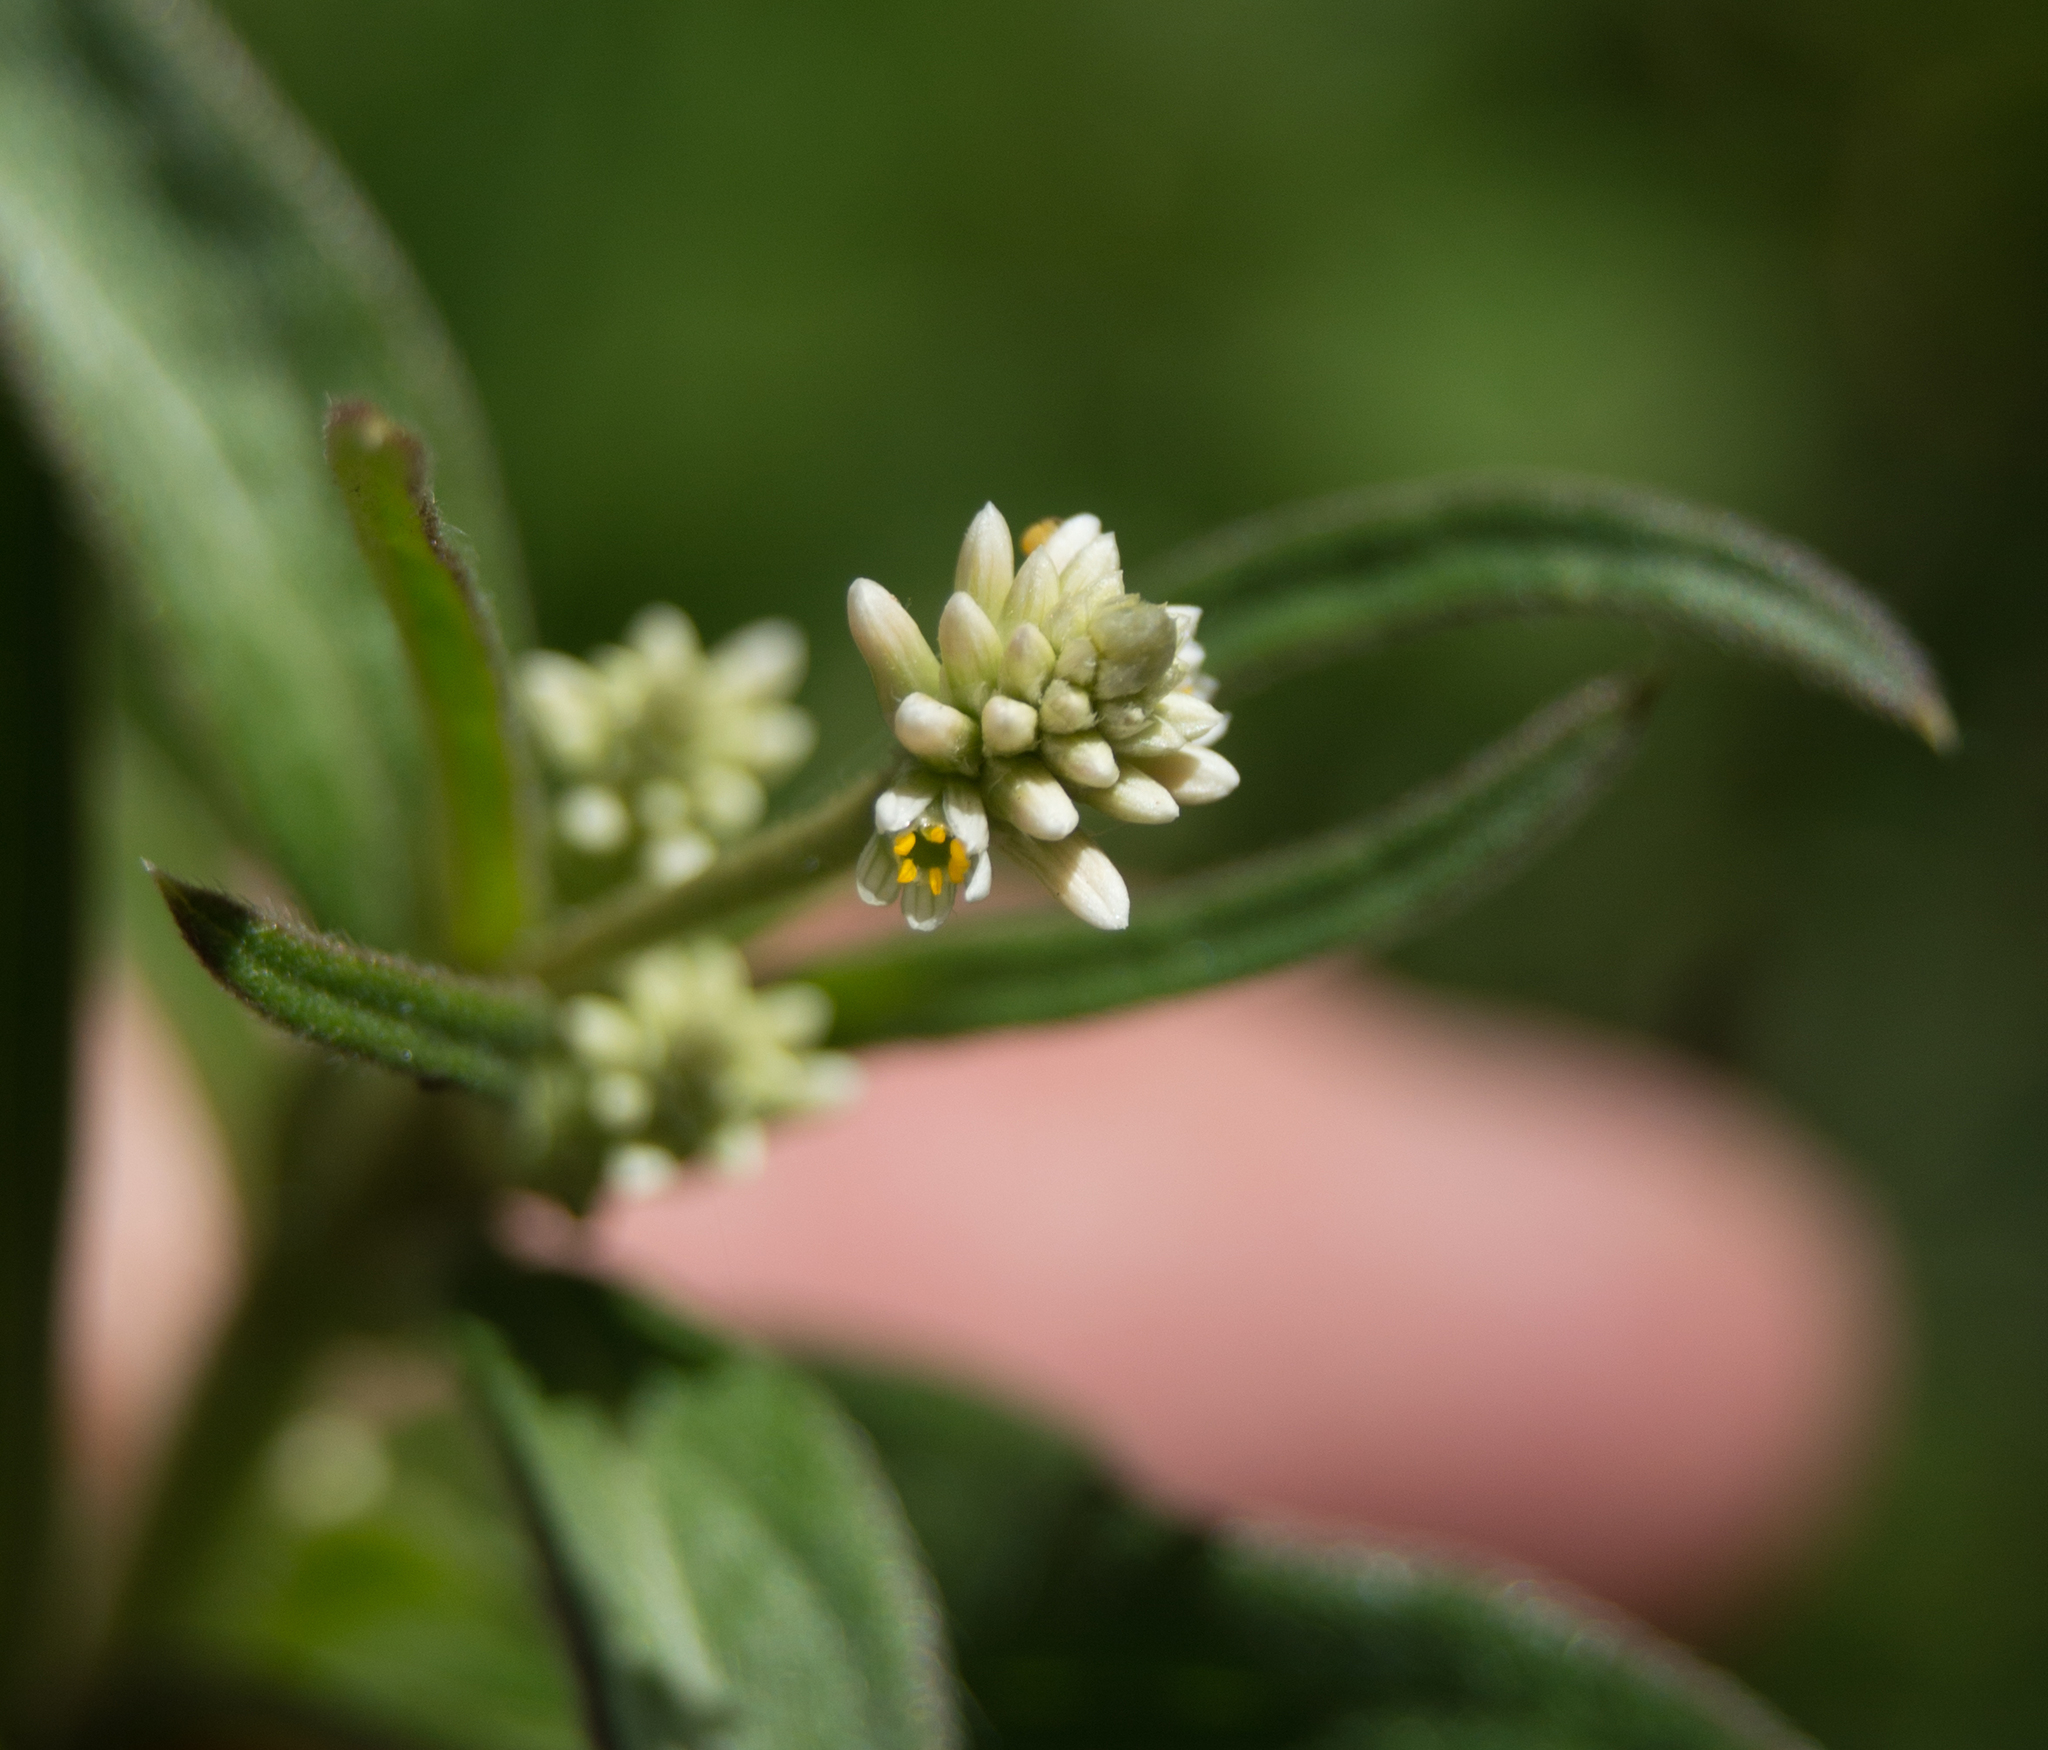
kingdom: Plantae
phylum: Tracheophyta
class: Magnoliopsida
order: Caryophyllales
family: Polygonaceae
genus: Persicaria
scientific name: Persicaria stelligera
